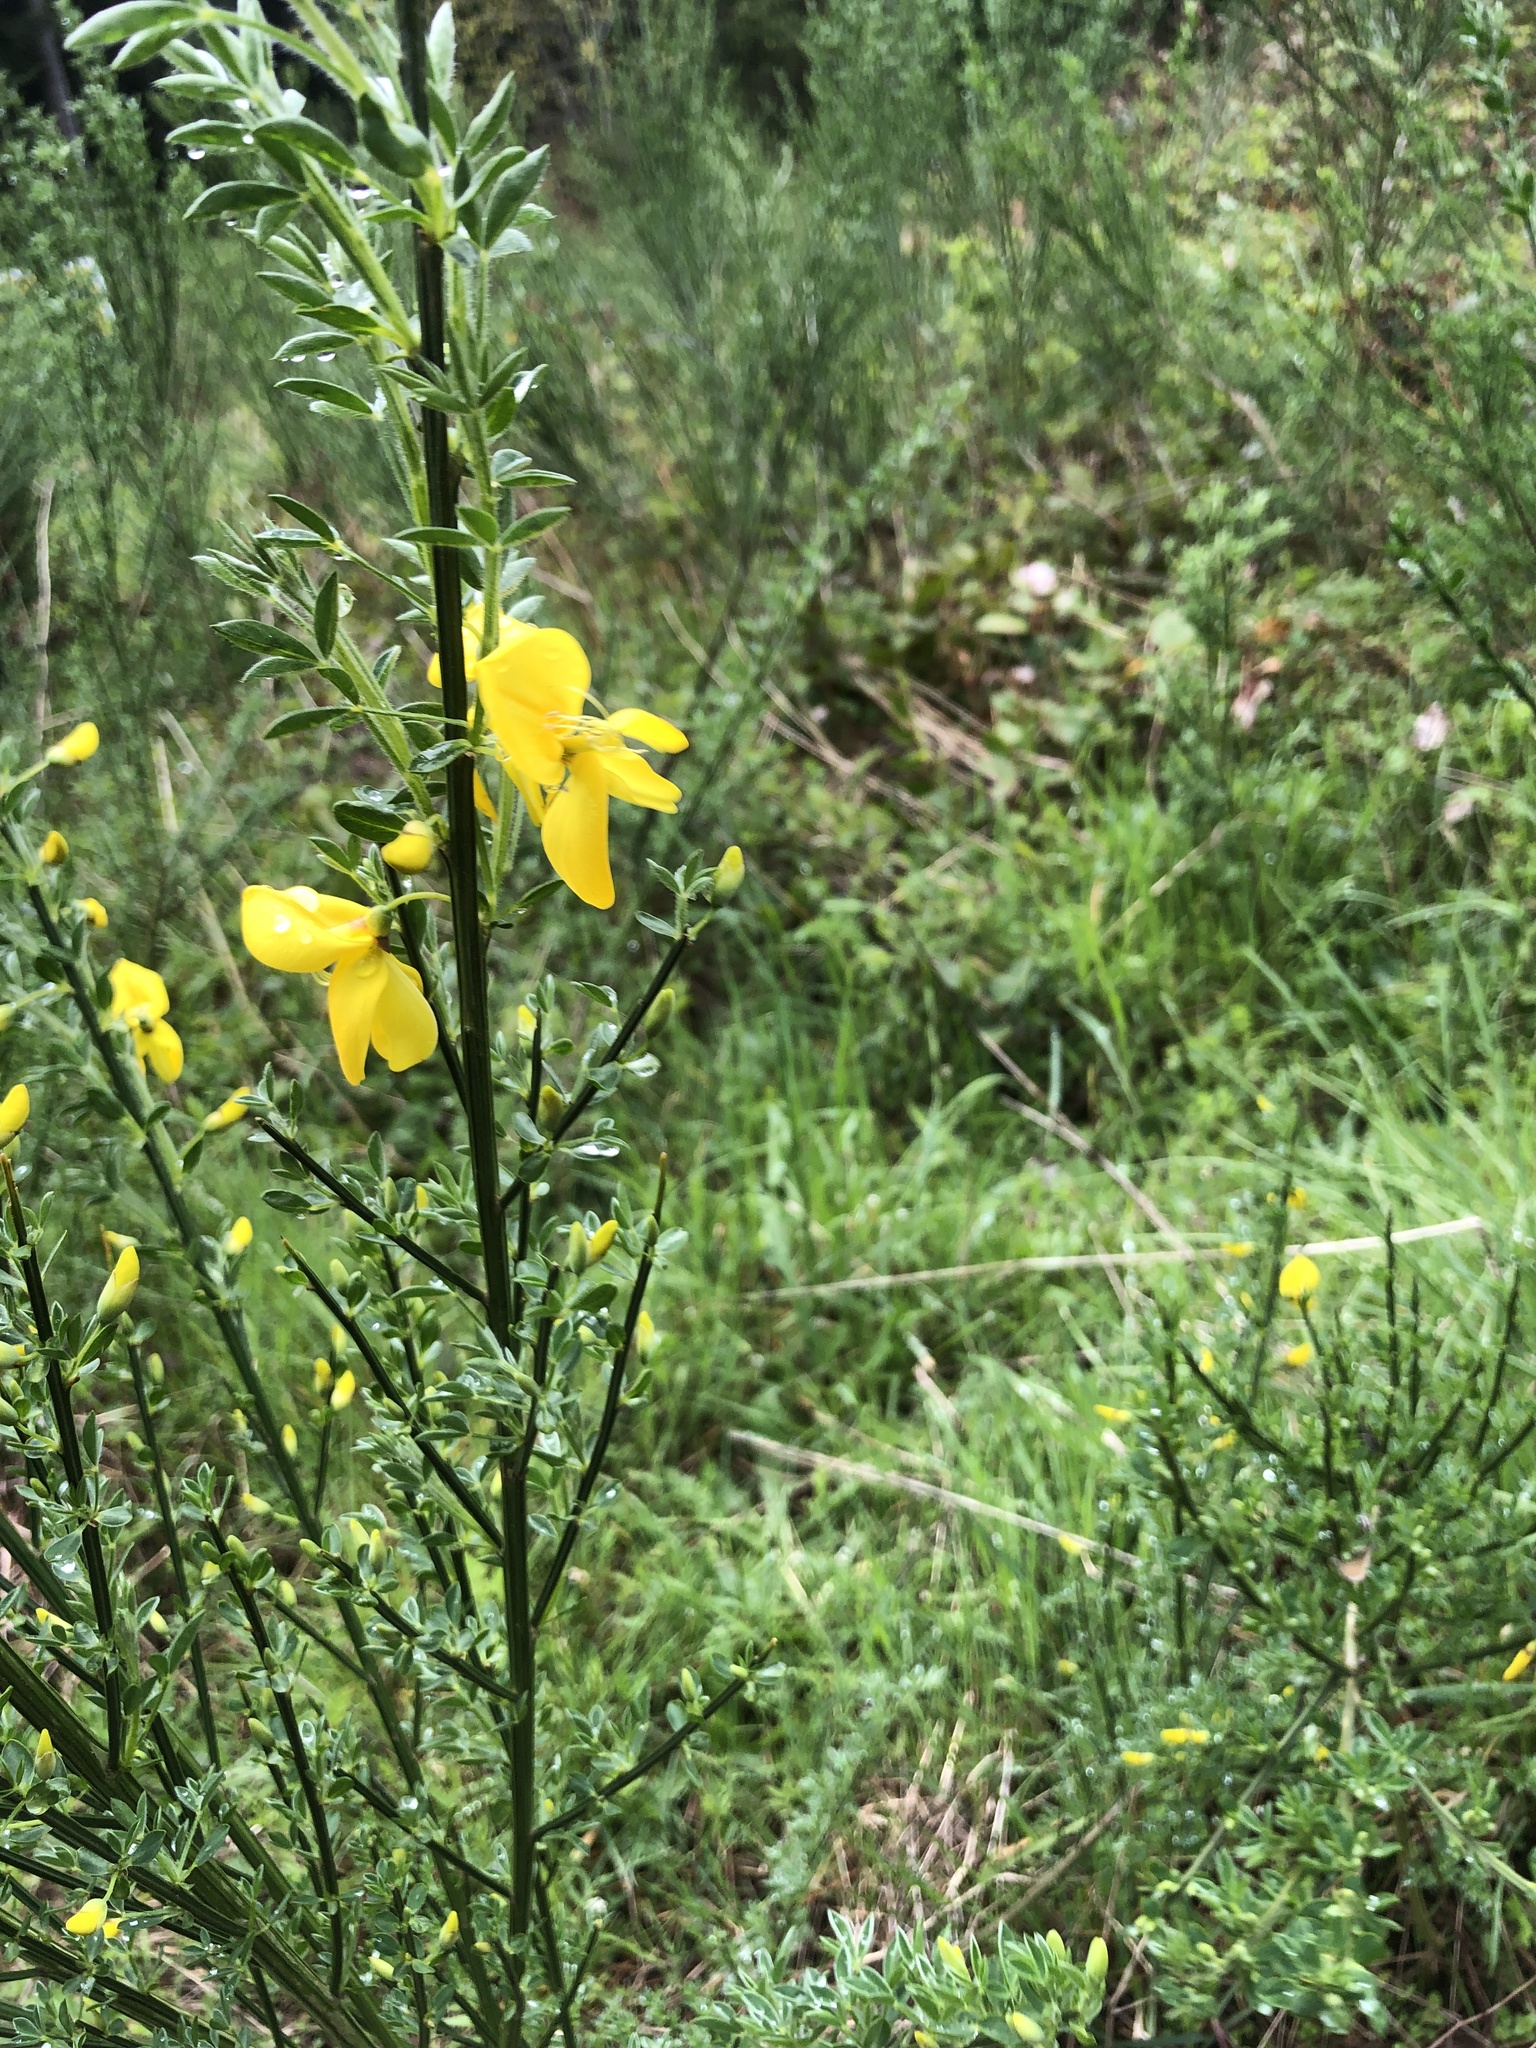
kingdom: Plantae
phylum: Tracheophyta
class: Magnoliopsida
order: Fabales
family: Fabaceae
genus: Cytisus
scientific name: Cytisus scoparius
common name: Scotch broom
